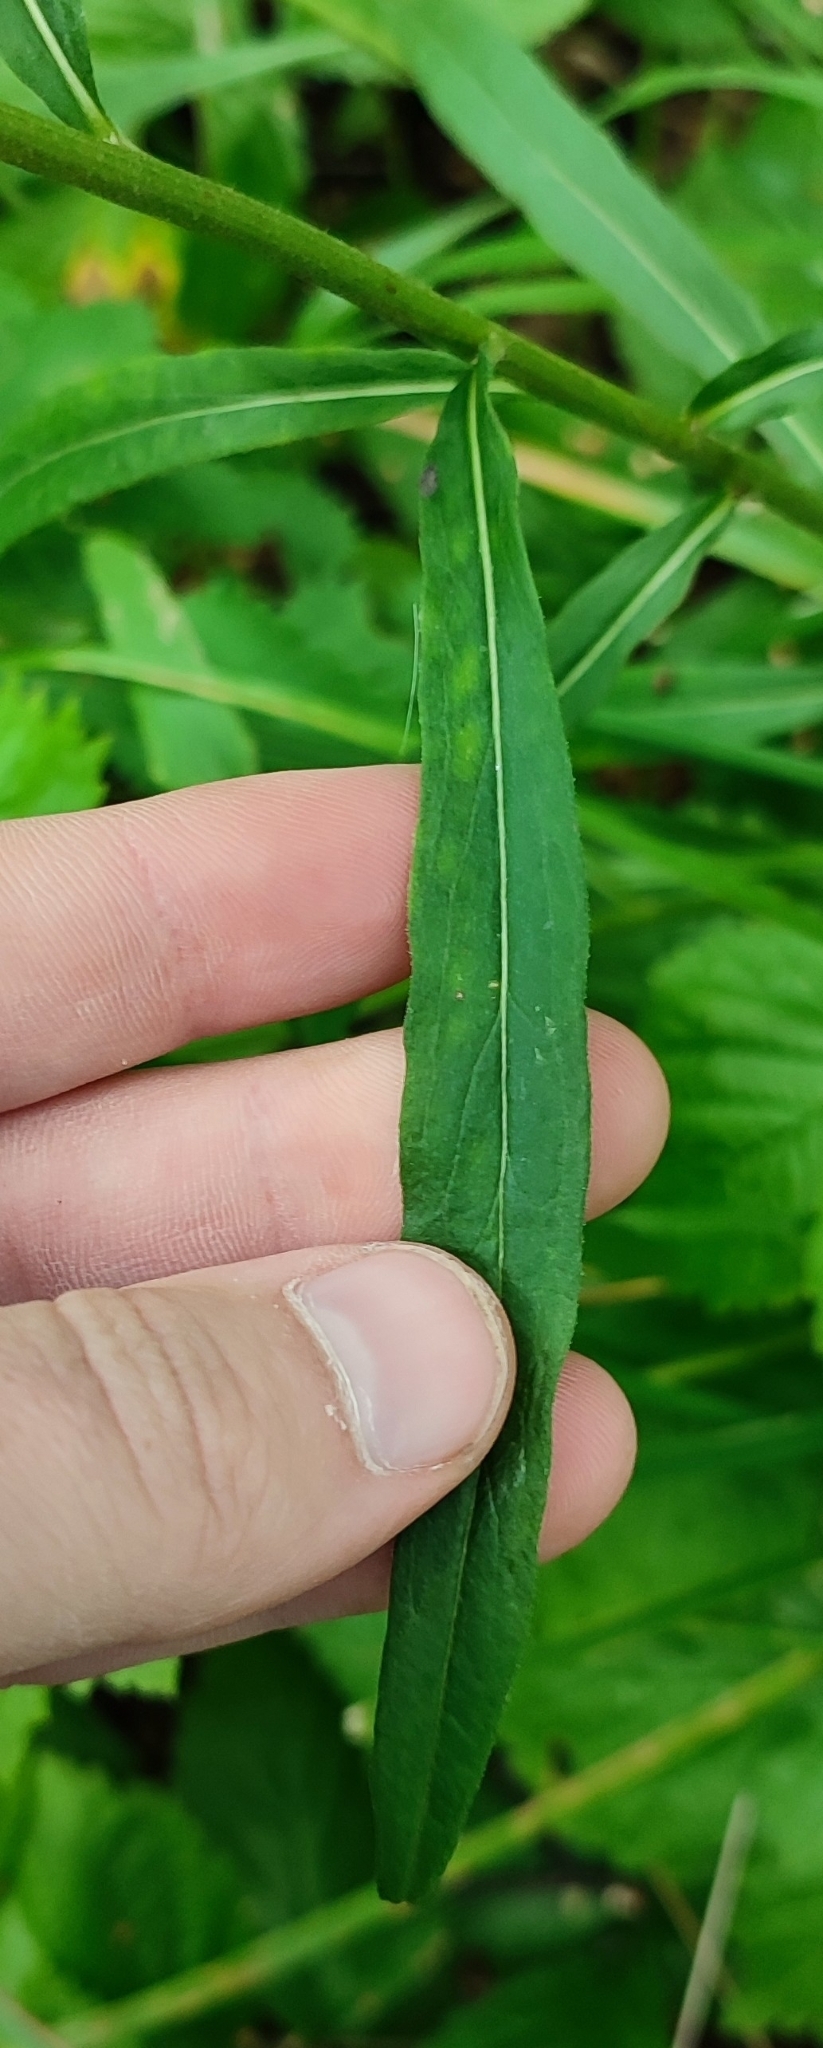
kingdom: Plantae
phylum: Tracheophyta
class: Magnoliopsida
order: Asterales
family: Asteraceae
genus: Hieracium
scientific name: Hieracium umbellatum
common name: Northern hawkweed
